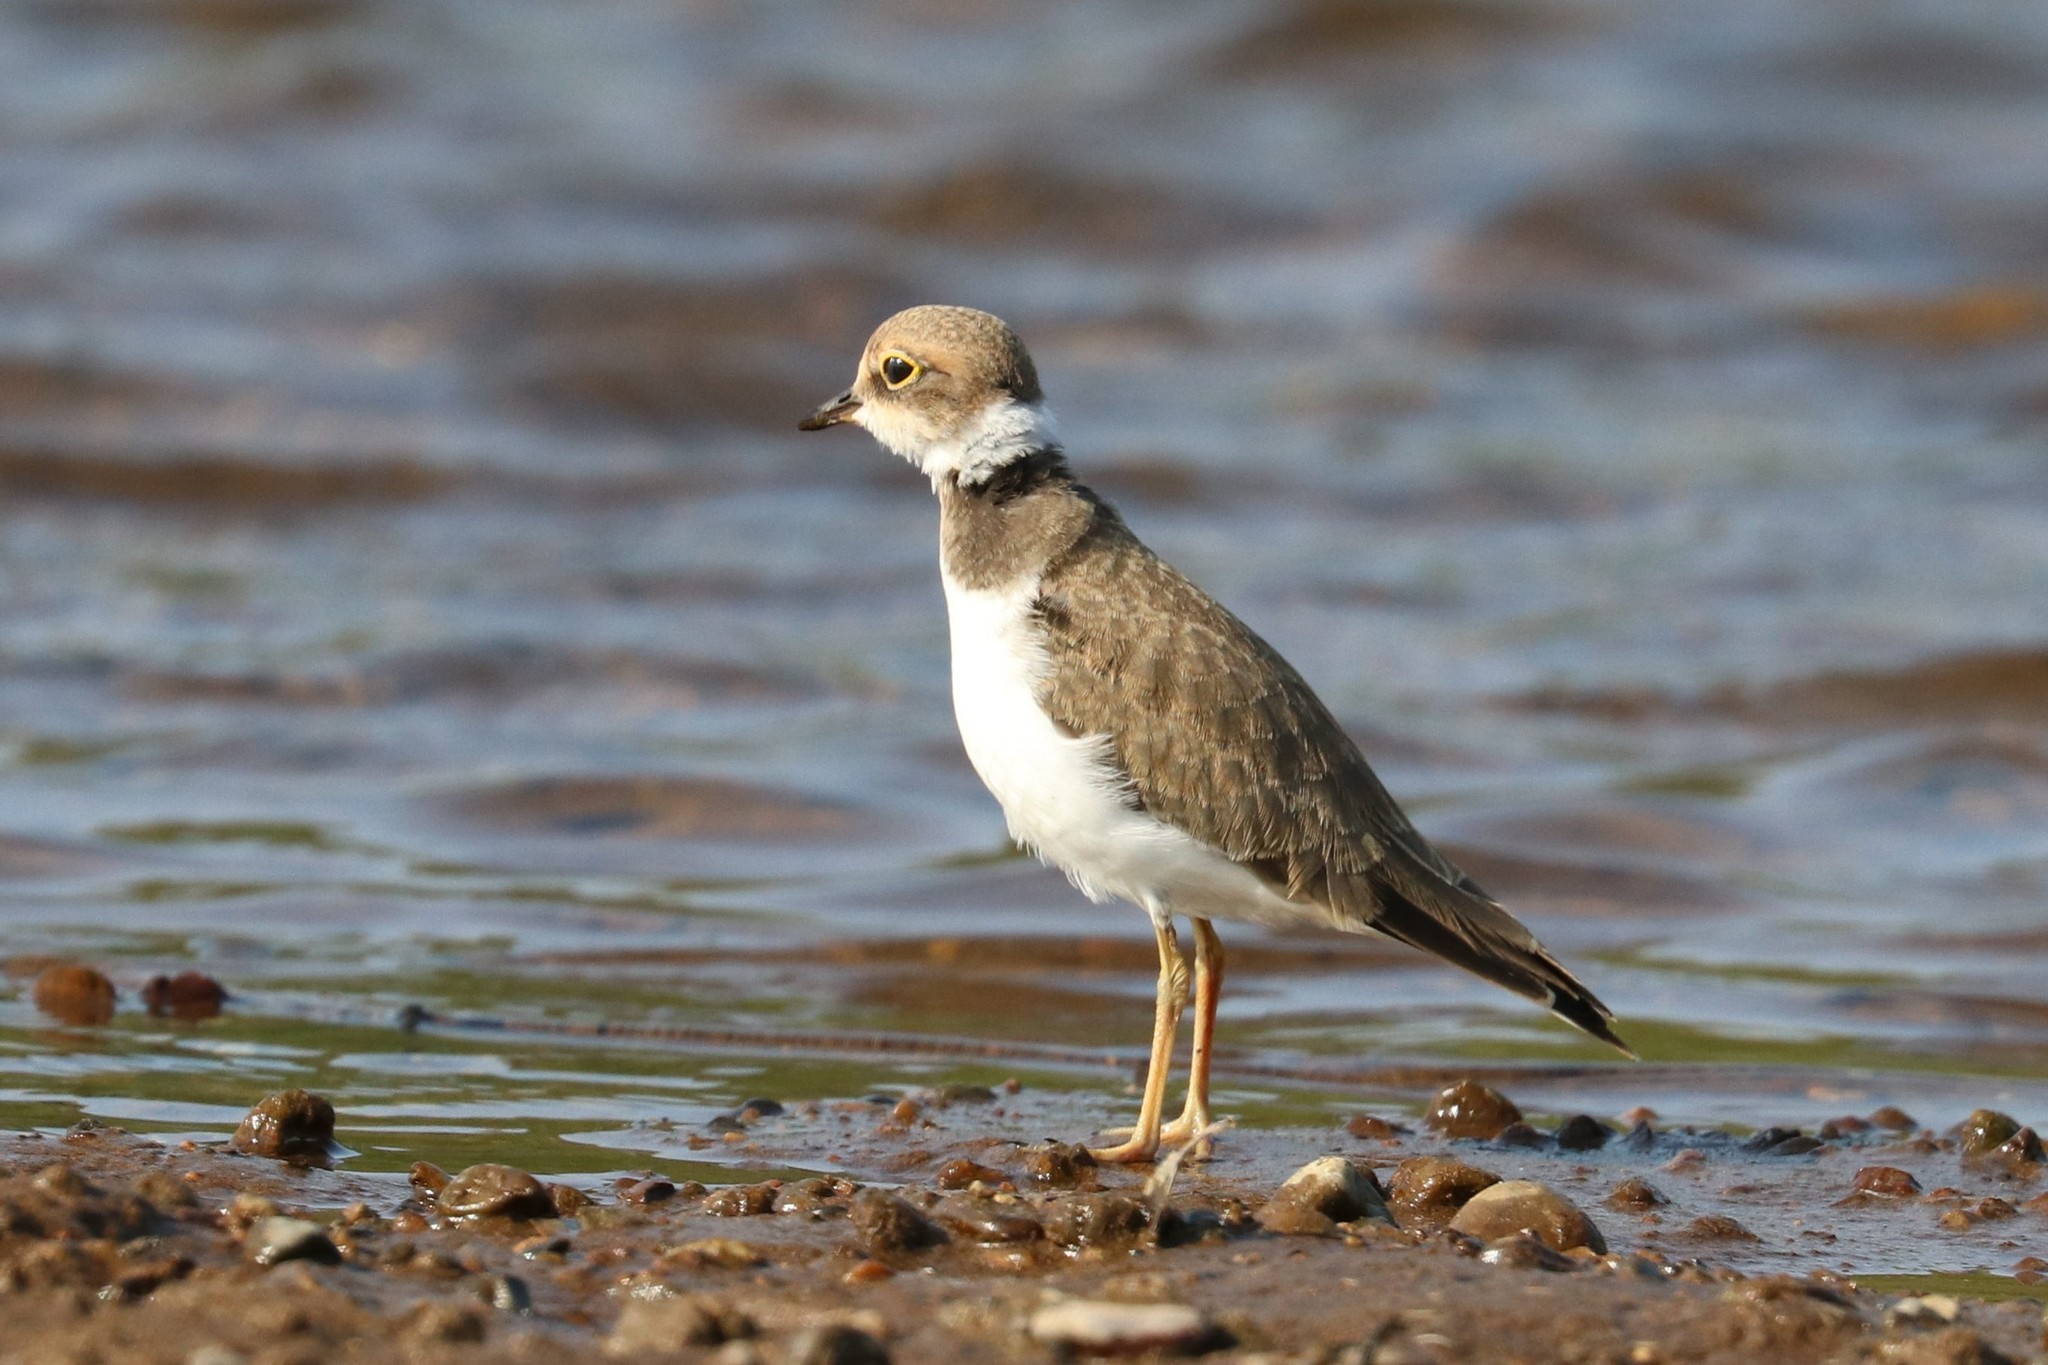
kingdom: Animalia
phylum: Chordata
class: Aves
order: Charadriiformes
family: Charadriidae
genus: Charadrius
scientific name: Charadrius dubius
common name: Little ringed plover
